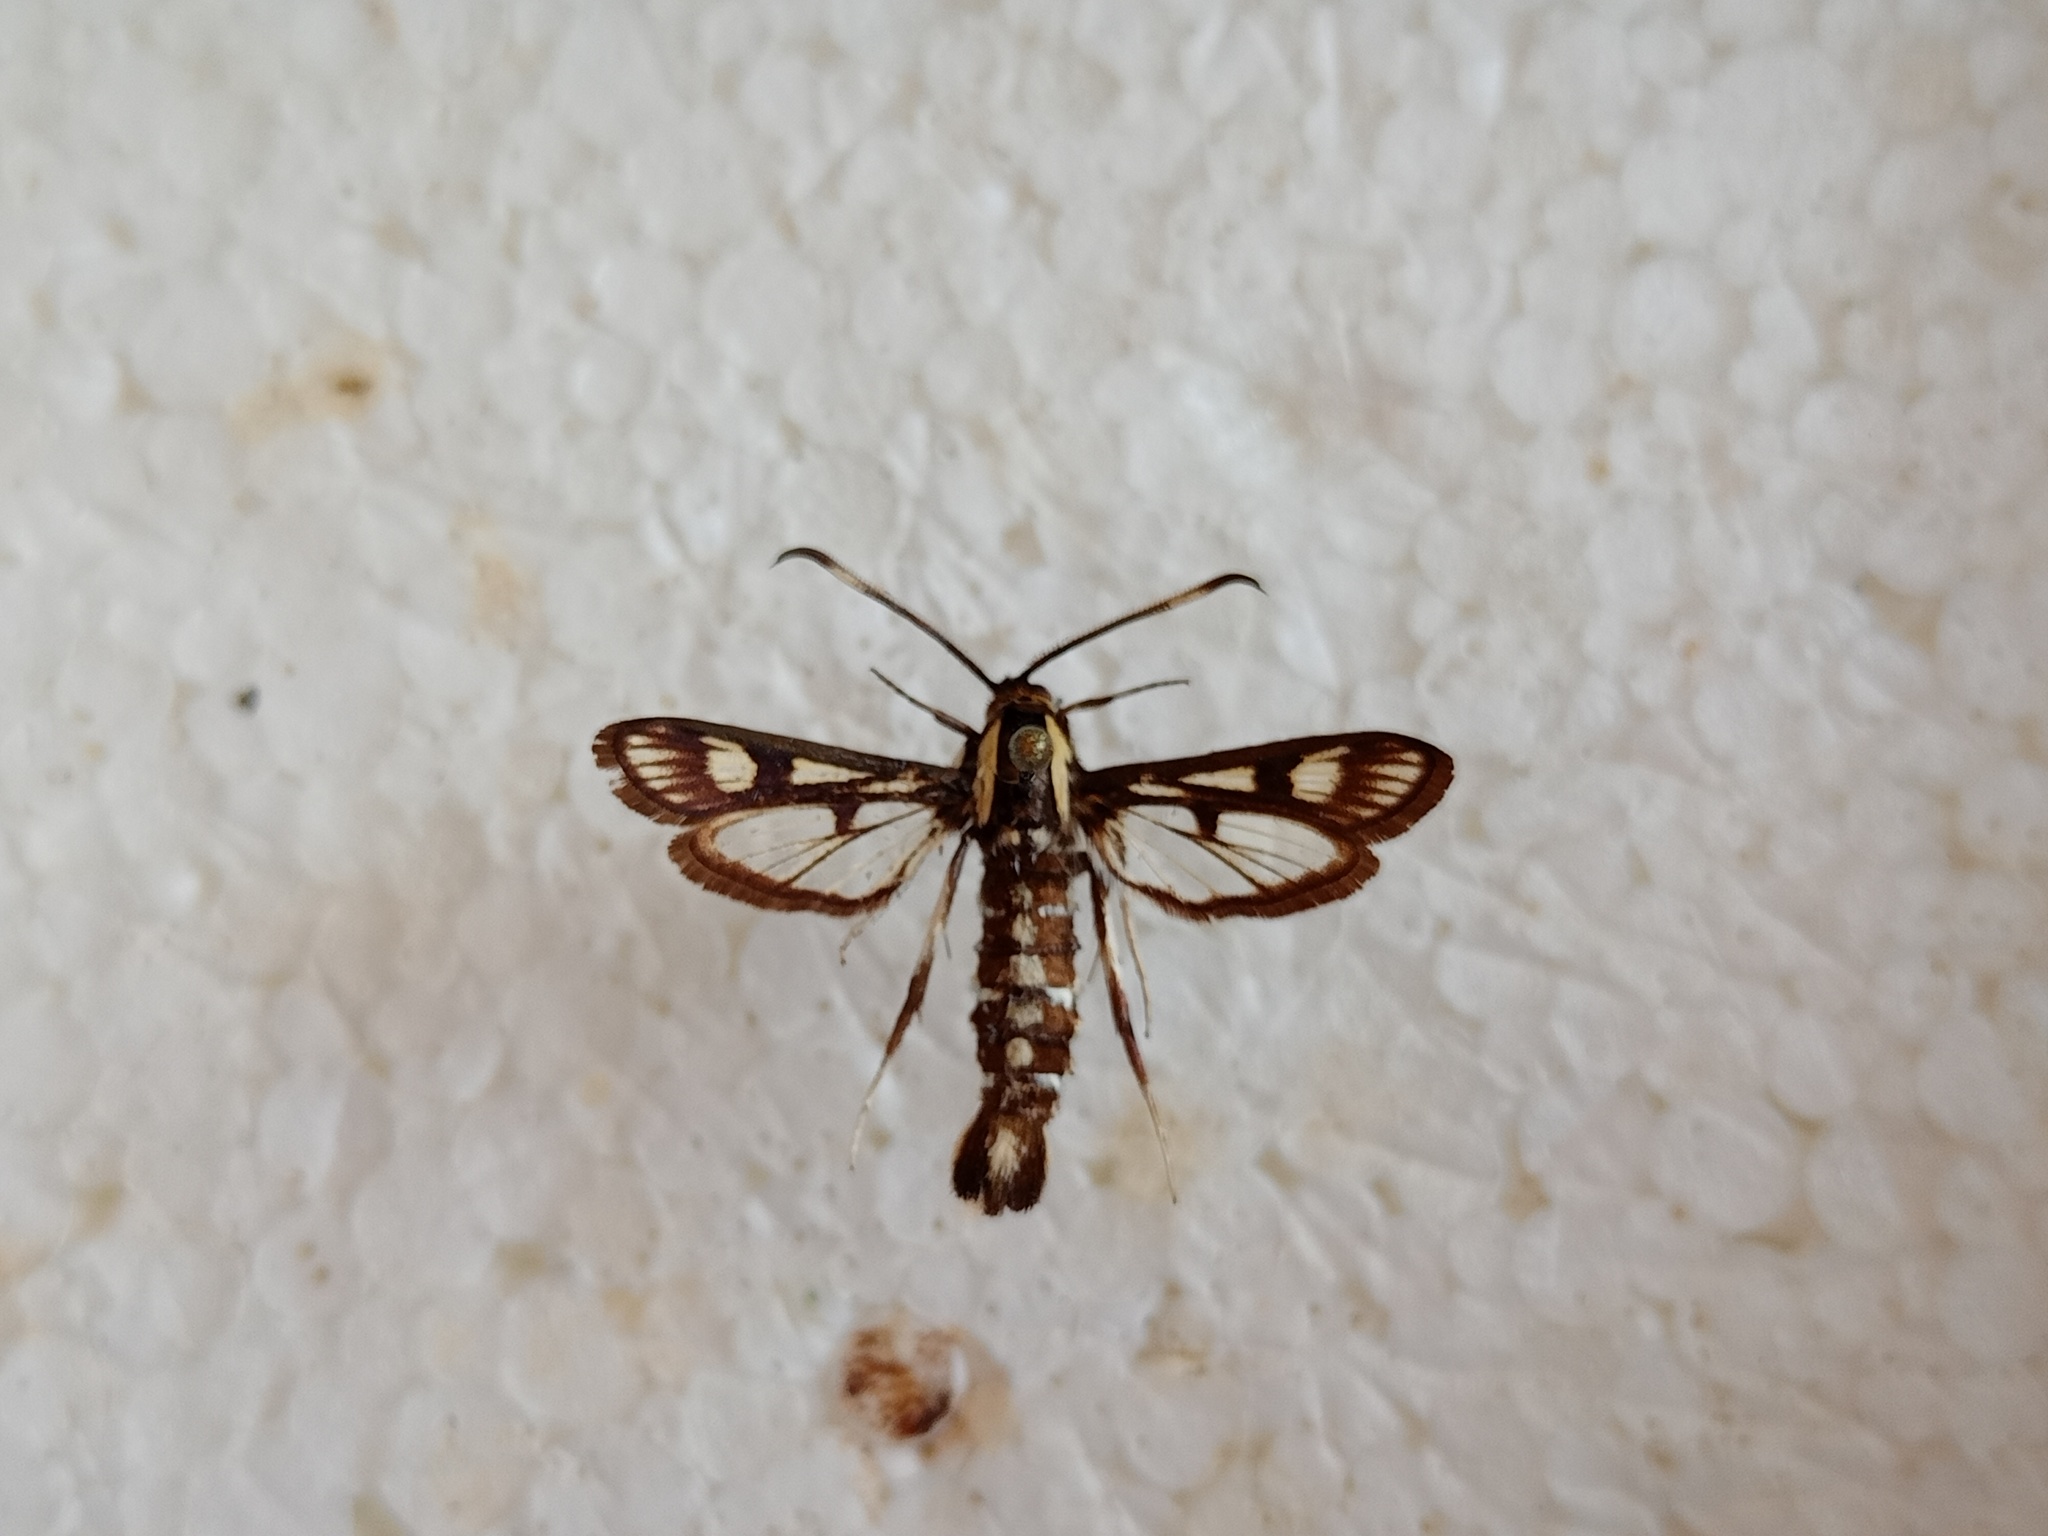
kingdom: Animalia
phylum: Arthropoda
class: Insecta
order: Lepidoptera
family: Sesiidae
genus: Pyropteron
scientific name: Pyropteron koshantschikovi
